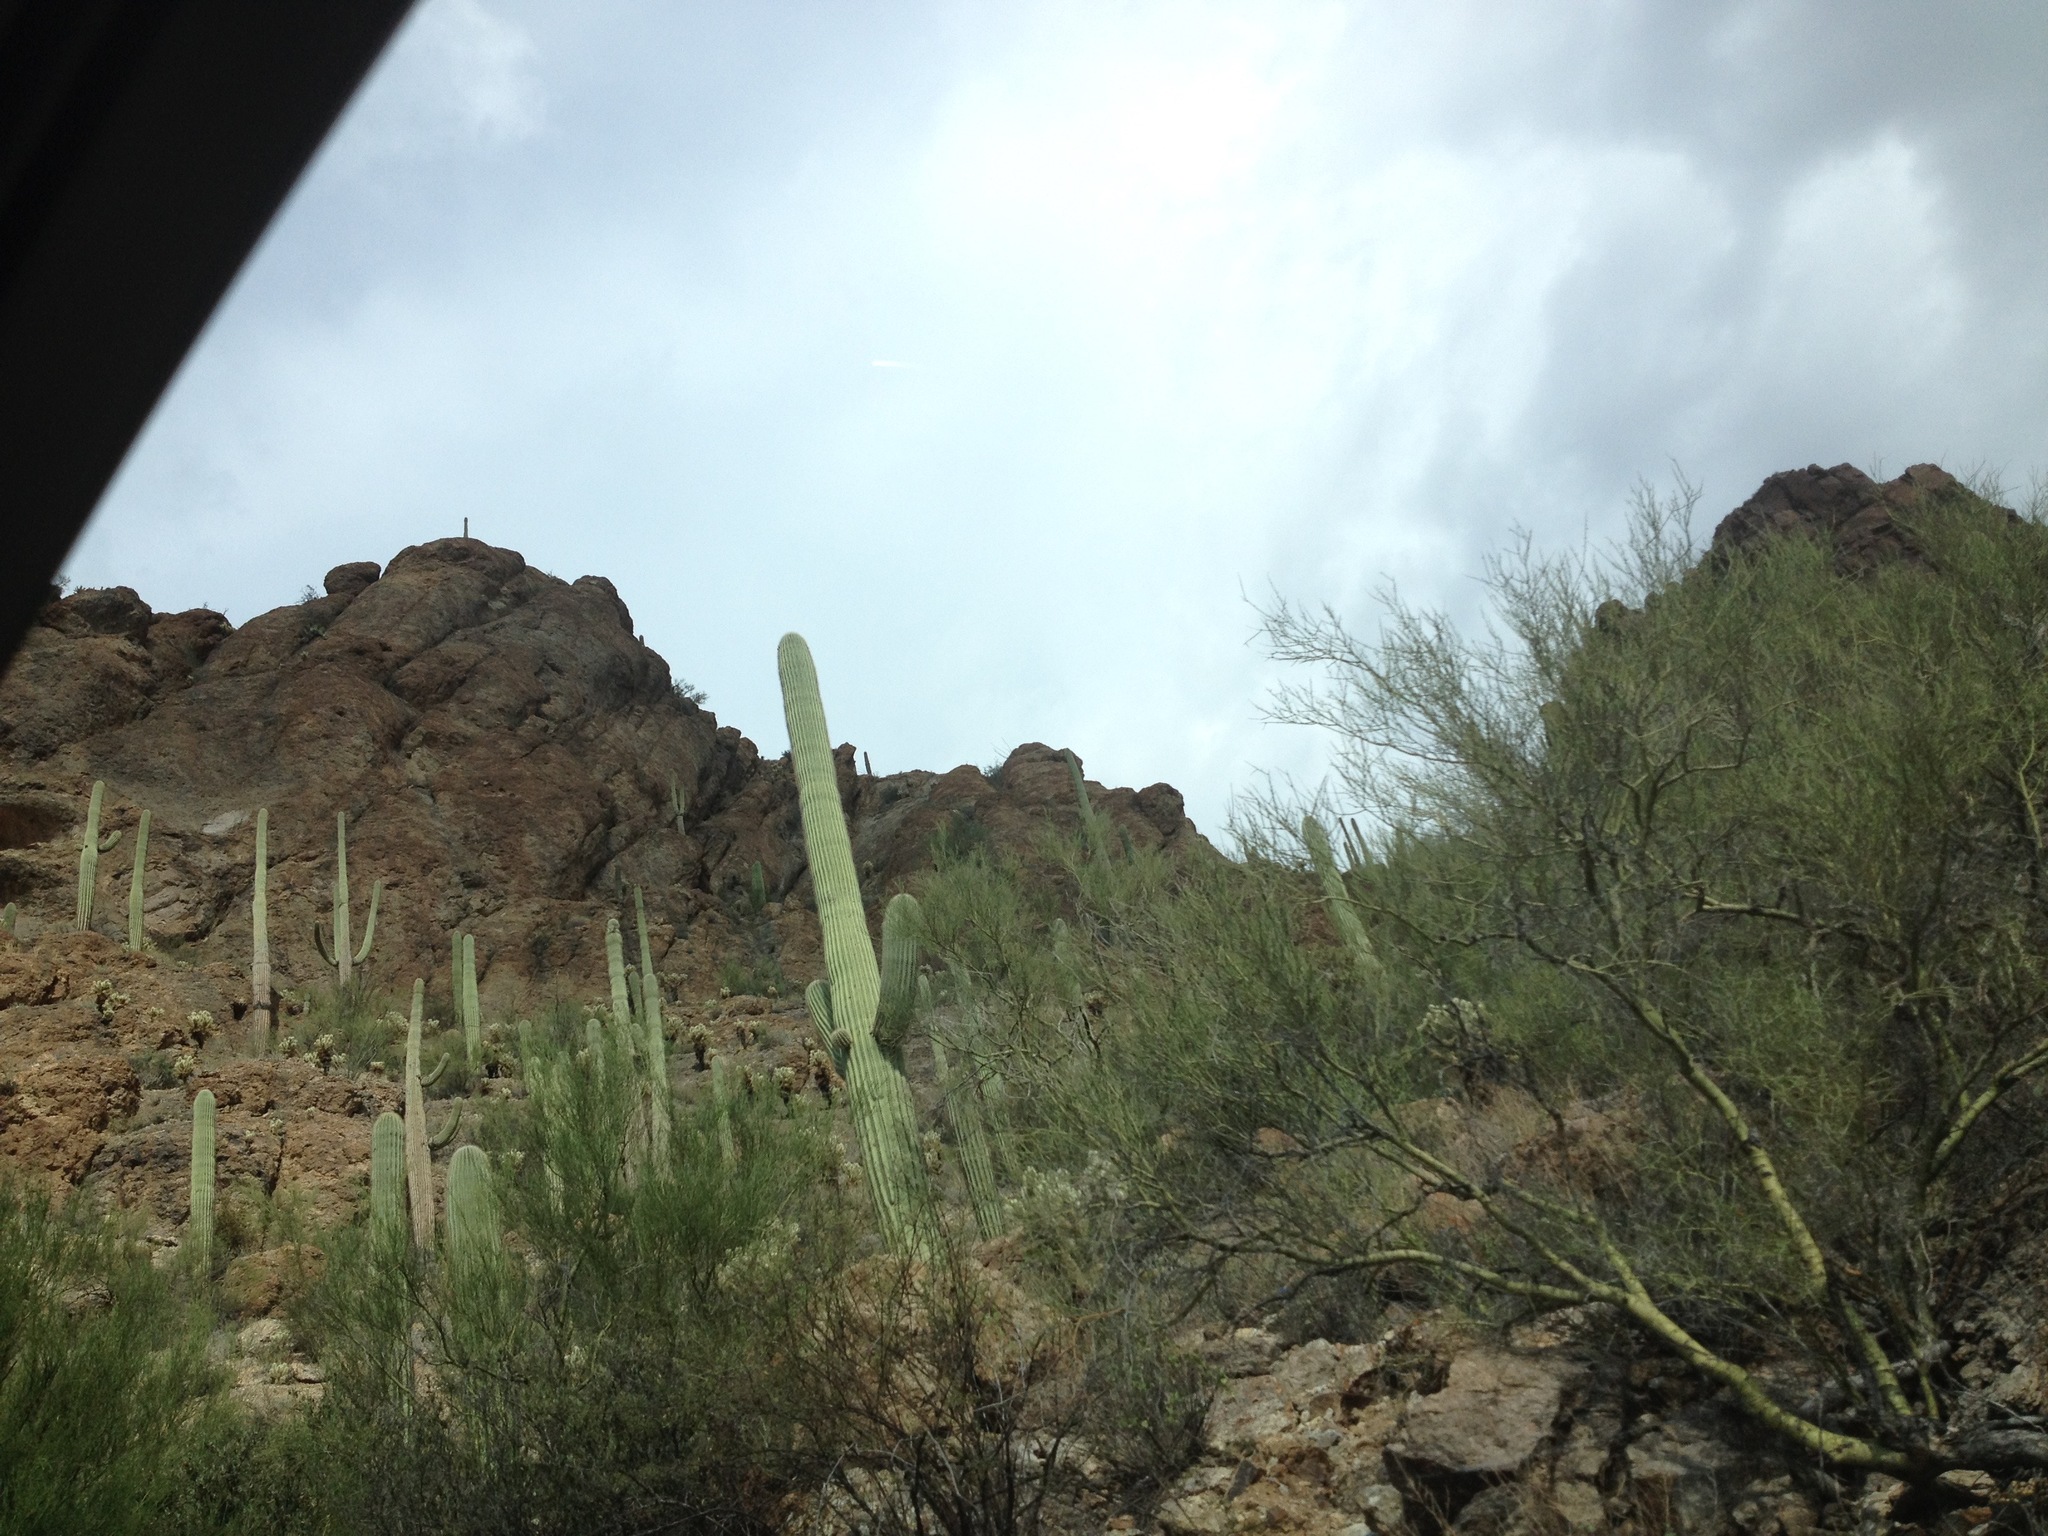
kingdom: Plantae
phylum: Tracheophyta
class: Magnoliopsida
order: Caryophyllales
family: Cactaceae
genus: Carnegiea
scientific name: Carnegiea gigantea
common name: Saguaro
